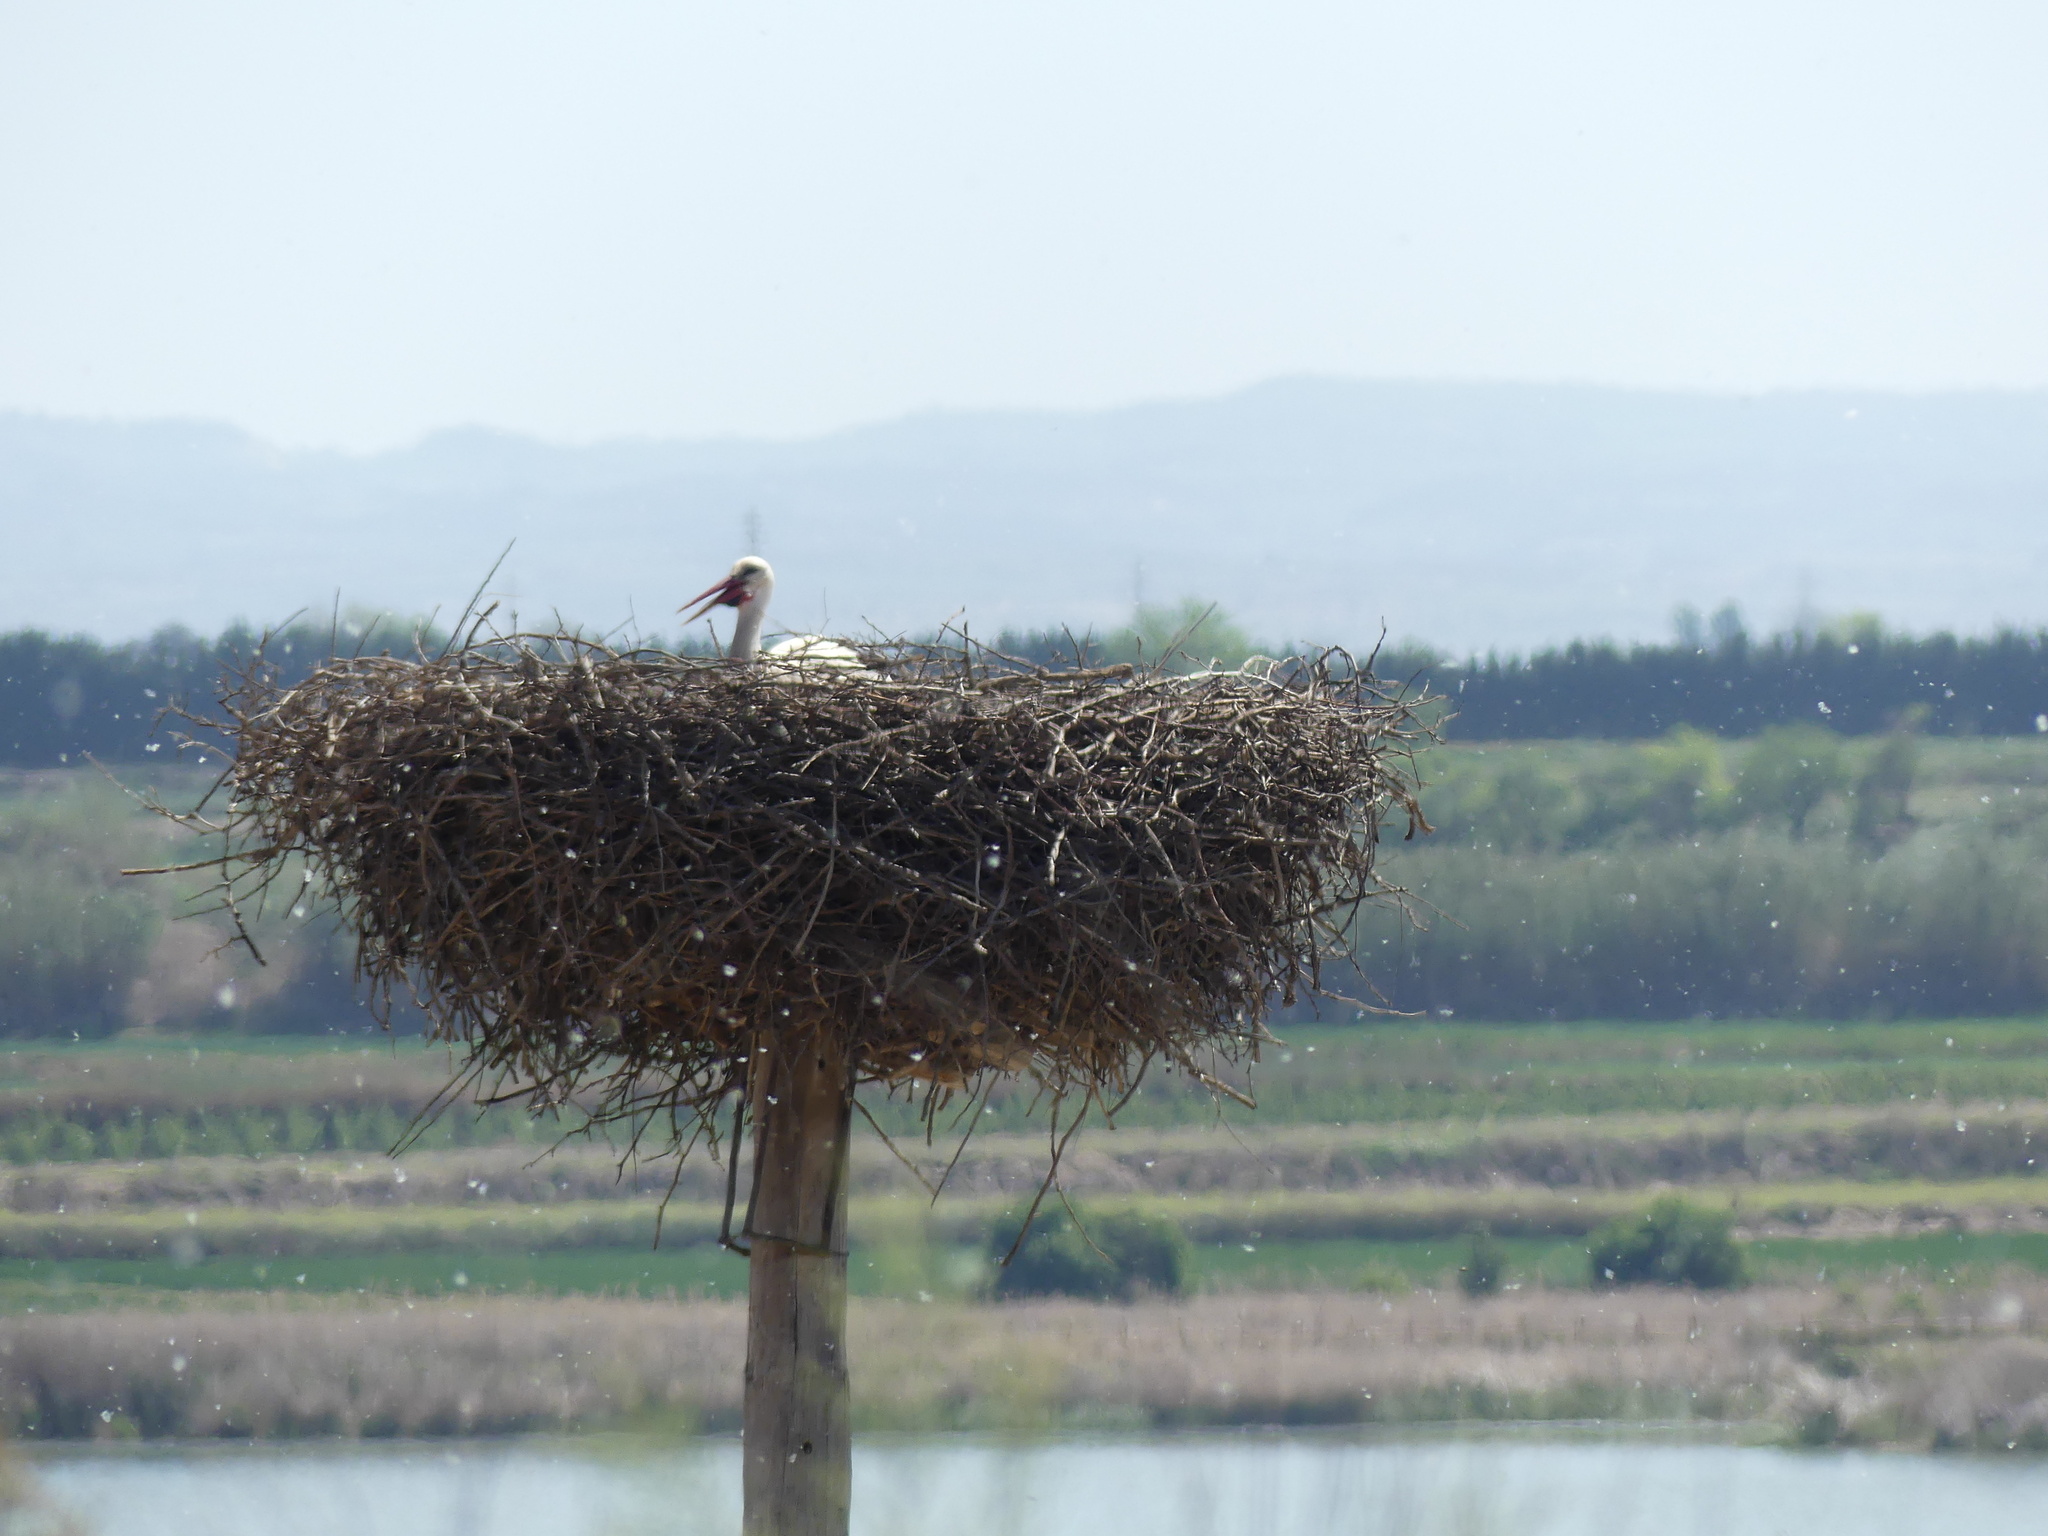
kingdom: Animalia
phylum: Chordata
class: Aves
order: Ciconiiformes
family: Ciconiidae
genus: Ciconia
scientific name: Ciconia ciconia
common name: White stork
